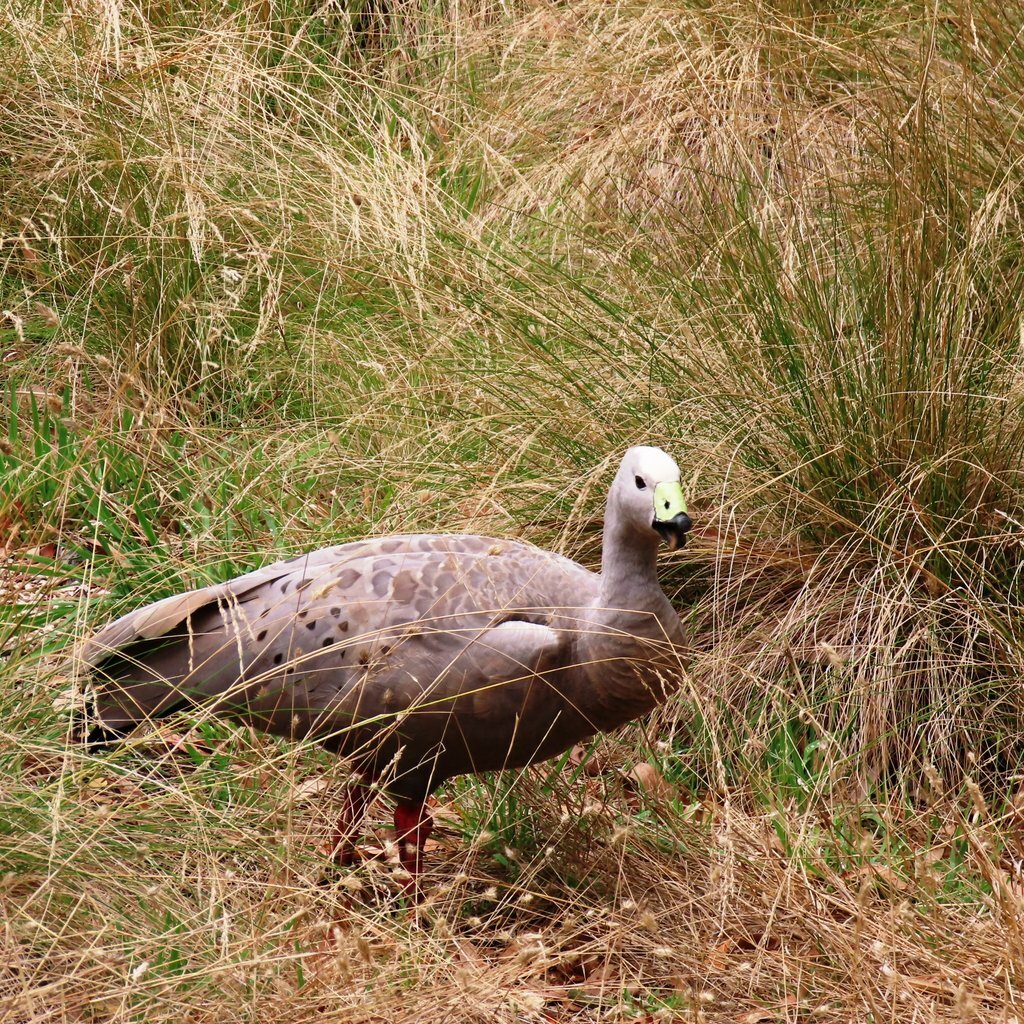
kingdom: Animalia
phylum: Chordata
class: Aves
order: Anseriformes
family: Anatidae
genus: Cereopsis
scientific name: Cereopsis novaehollandiae
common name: Cape barren goose
